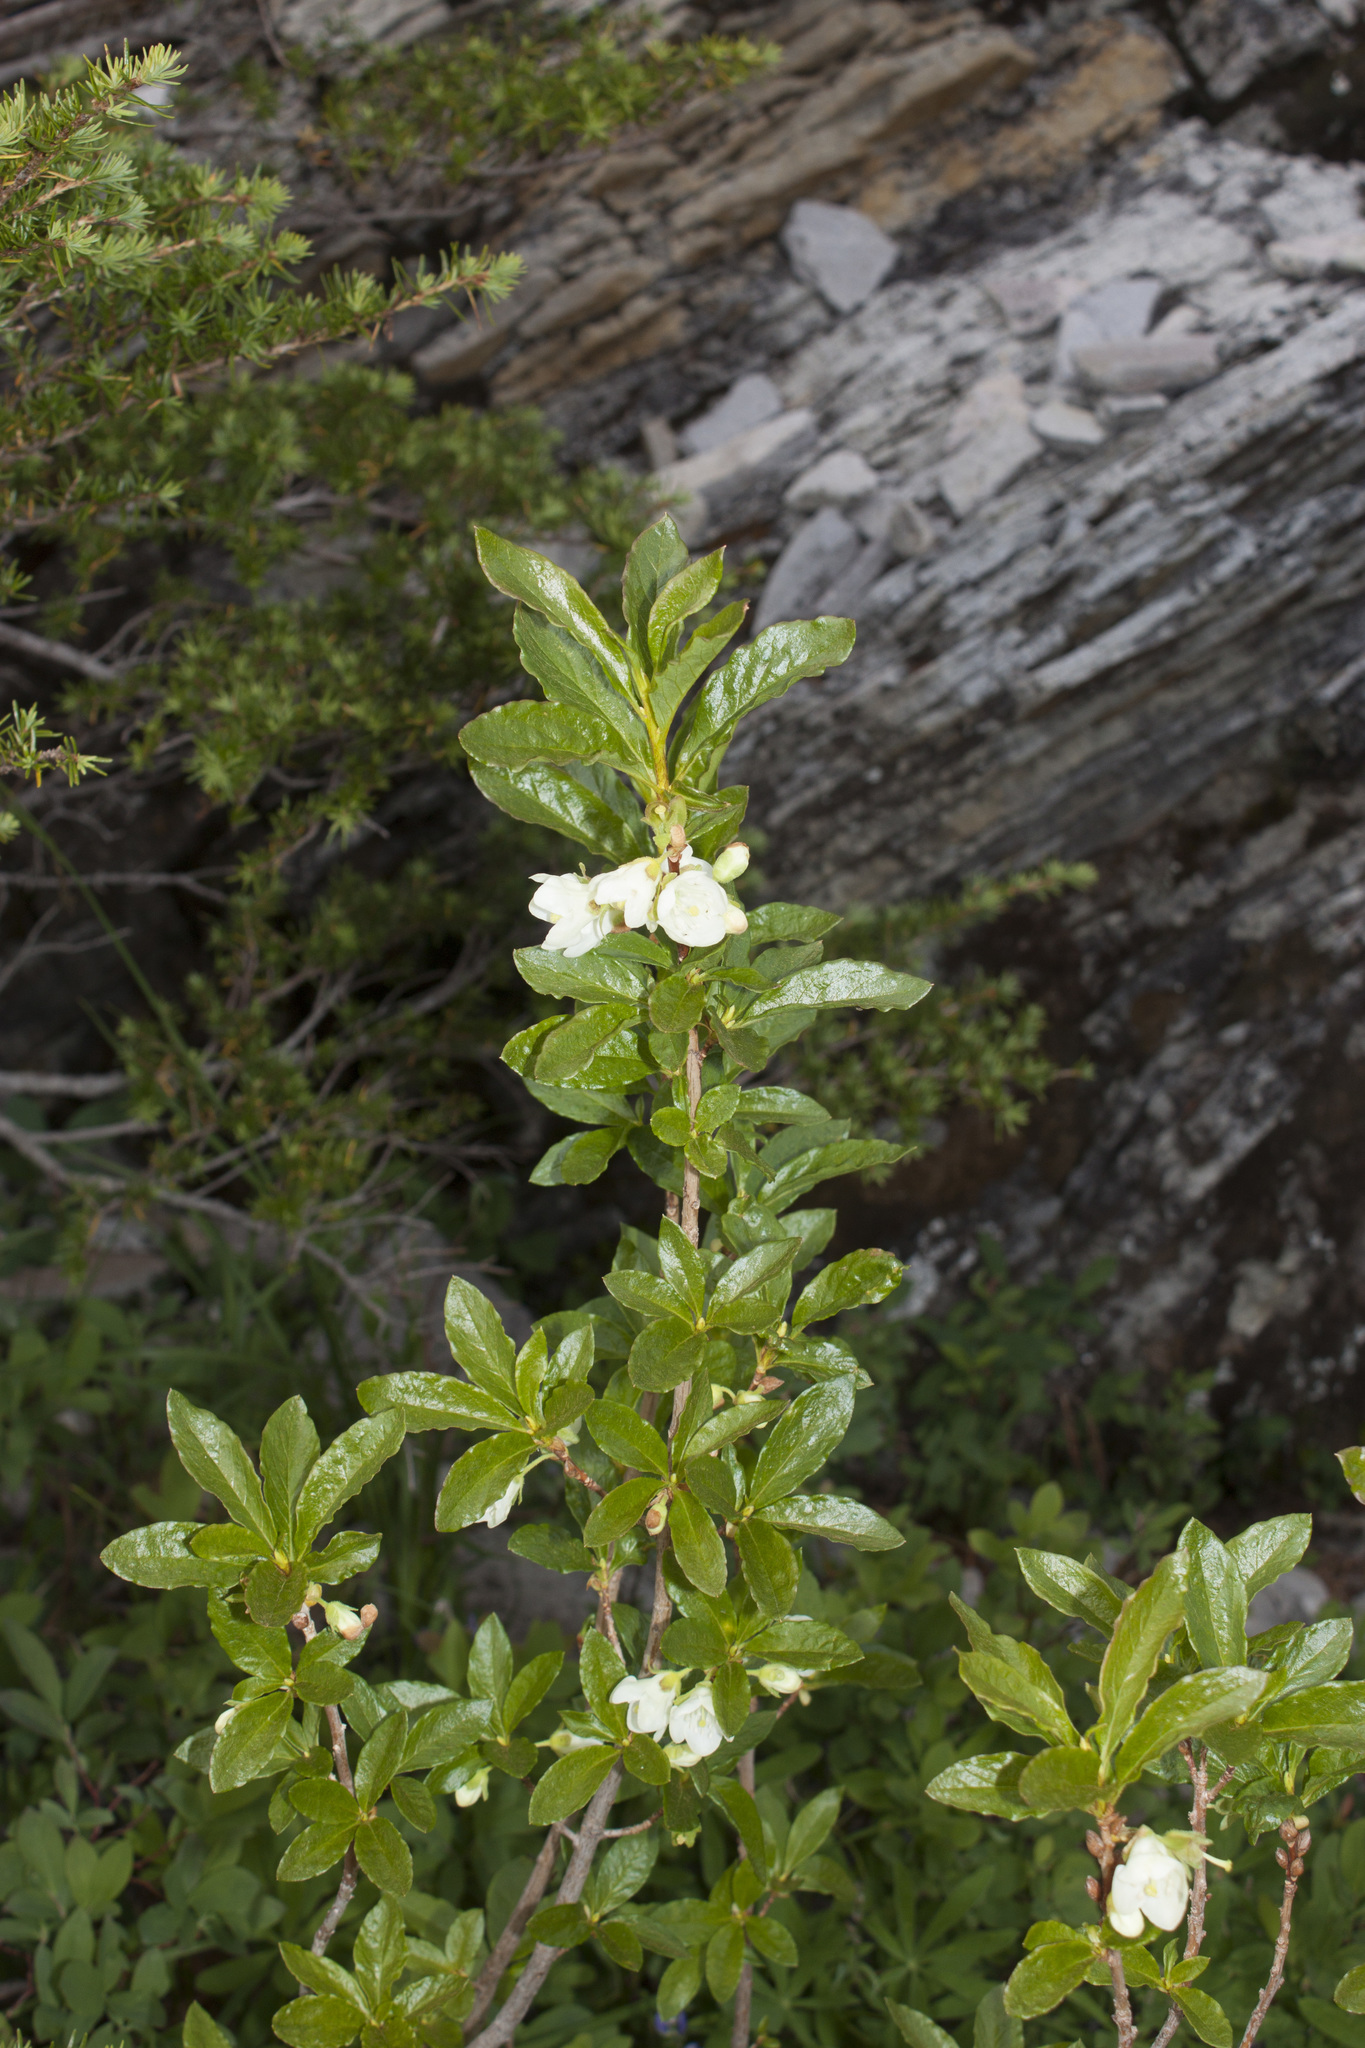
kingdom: Plantae
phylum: Tracheophyta
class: Magnoliopsida
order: Ericales
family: Ericaceae
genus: Rhododendron
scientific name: Rhododendron albiflorum
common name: White rhododendron
